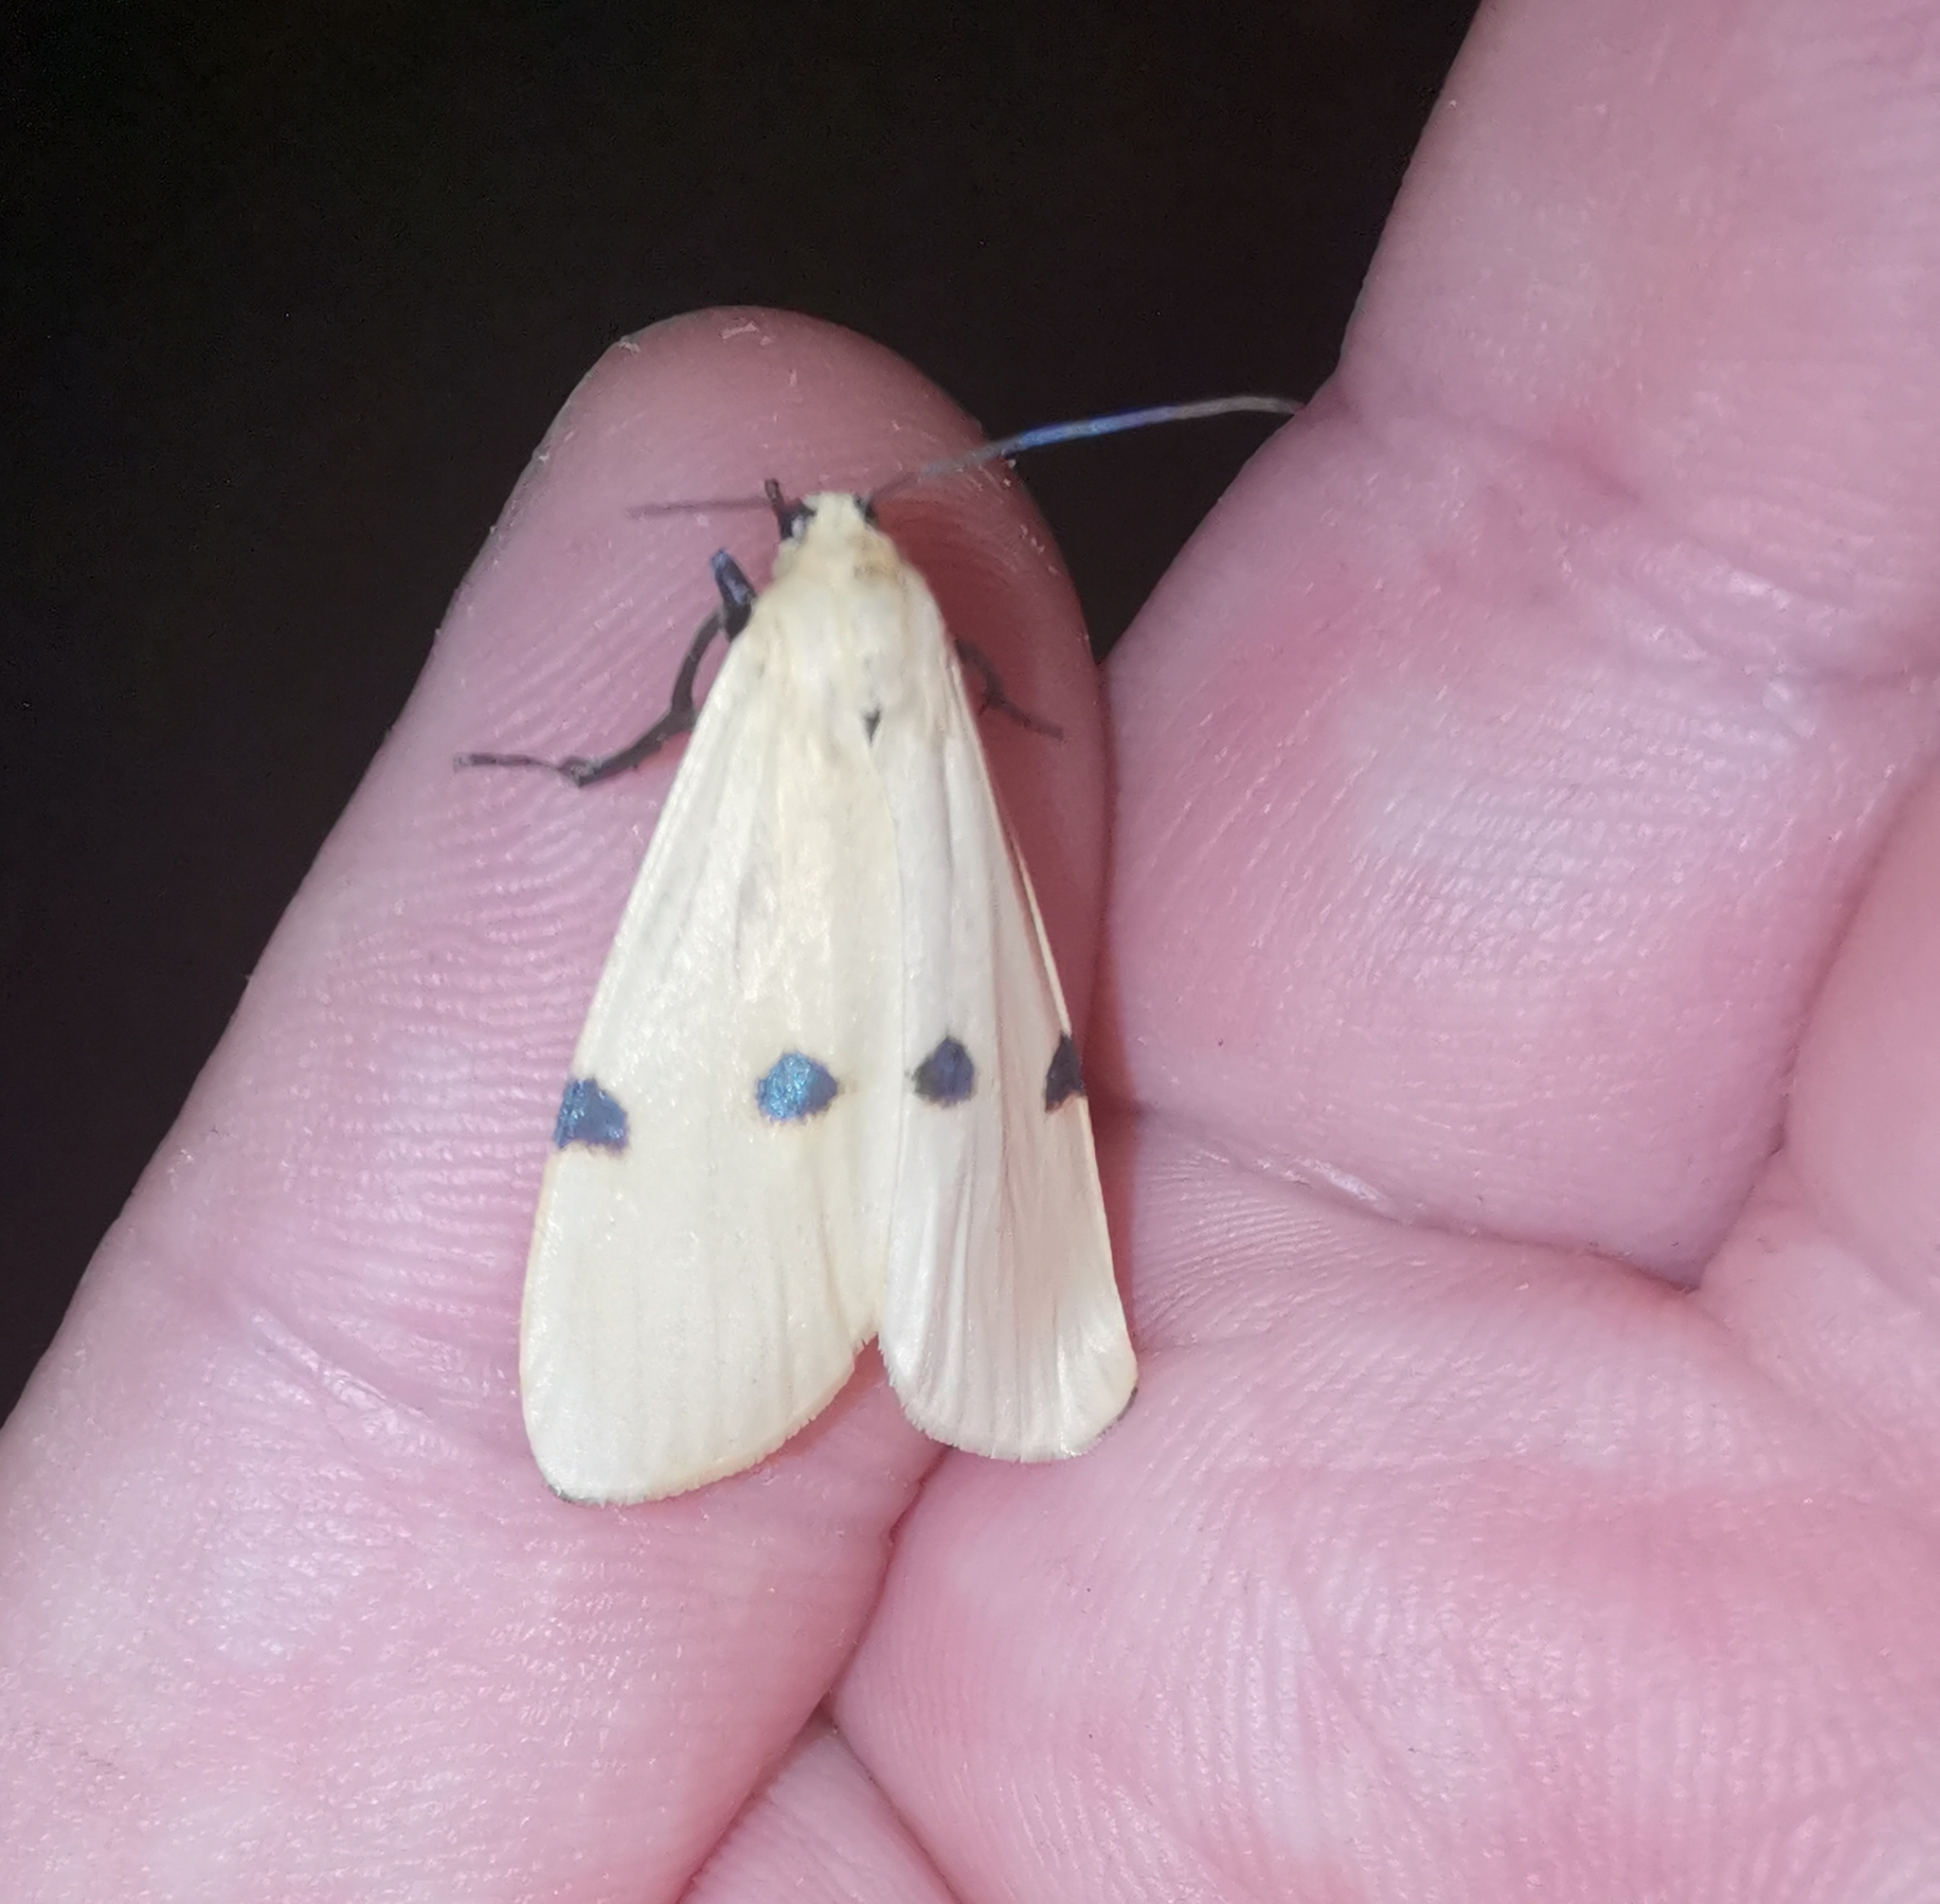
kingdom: Animalia
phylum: Arthropoda
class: Insecta
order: Lepidoptera
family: Erebidae
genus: Lithosia
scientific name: Lithosia quadra
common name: Four-spotted footman
